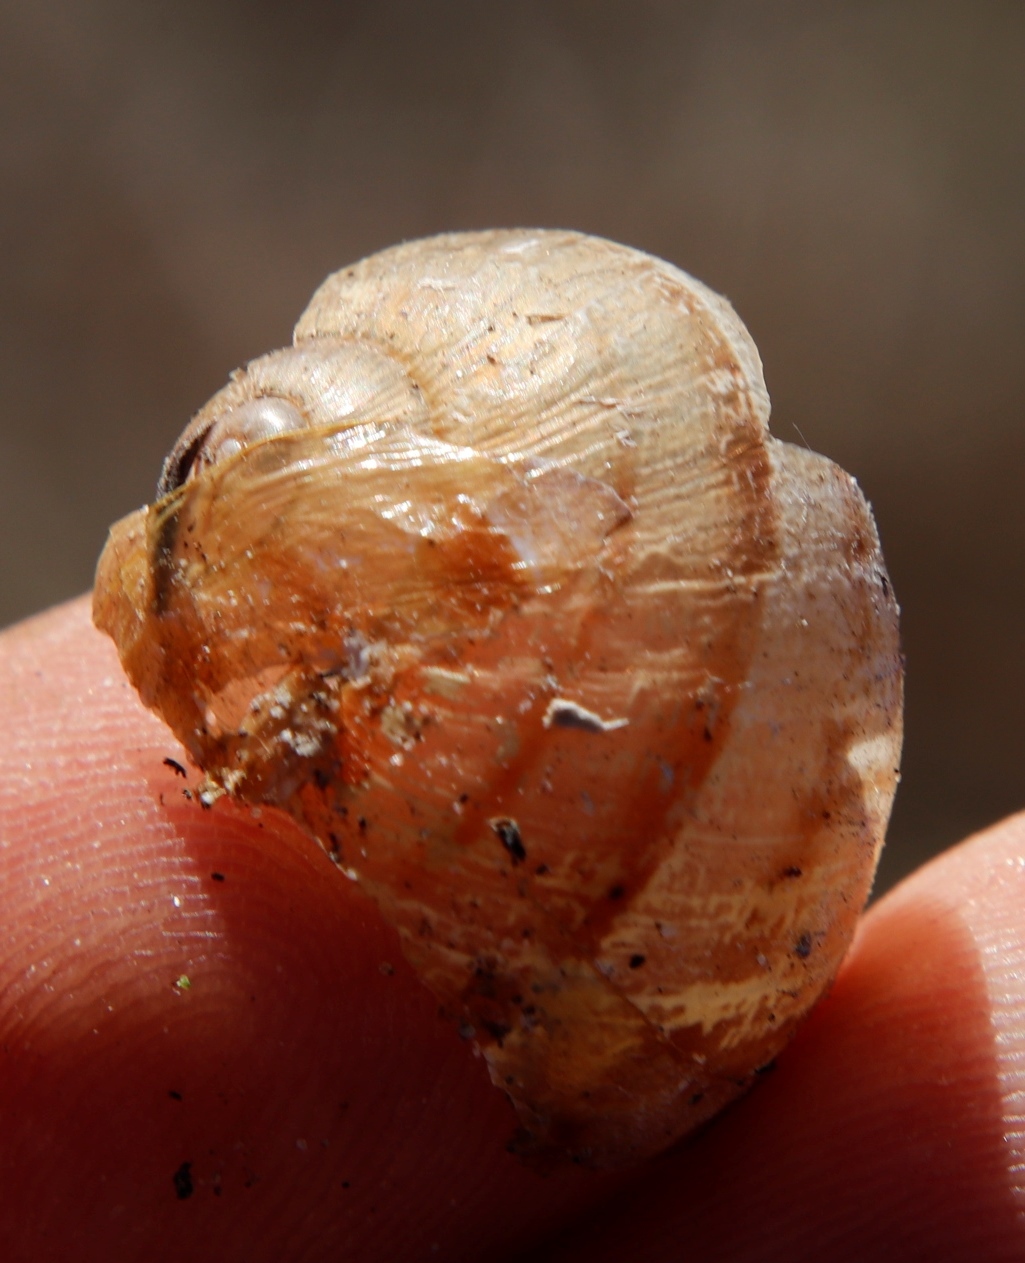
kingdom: Animalia
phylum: Mollusca
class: Gastropoda
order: Stylommatophora
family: Helicidae
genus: Cornu
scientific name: Cornu aspersum
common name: Brown garden snail
